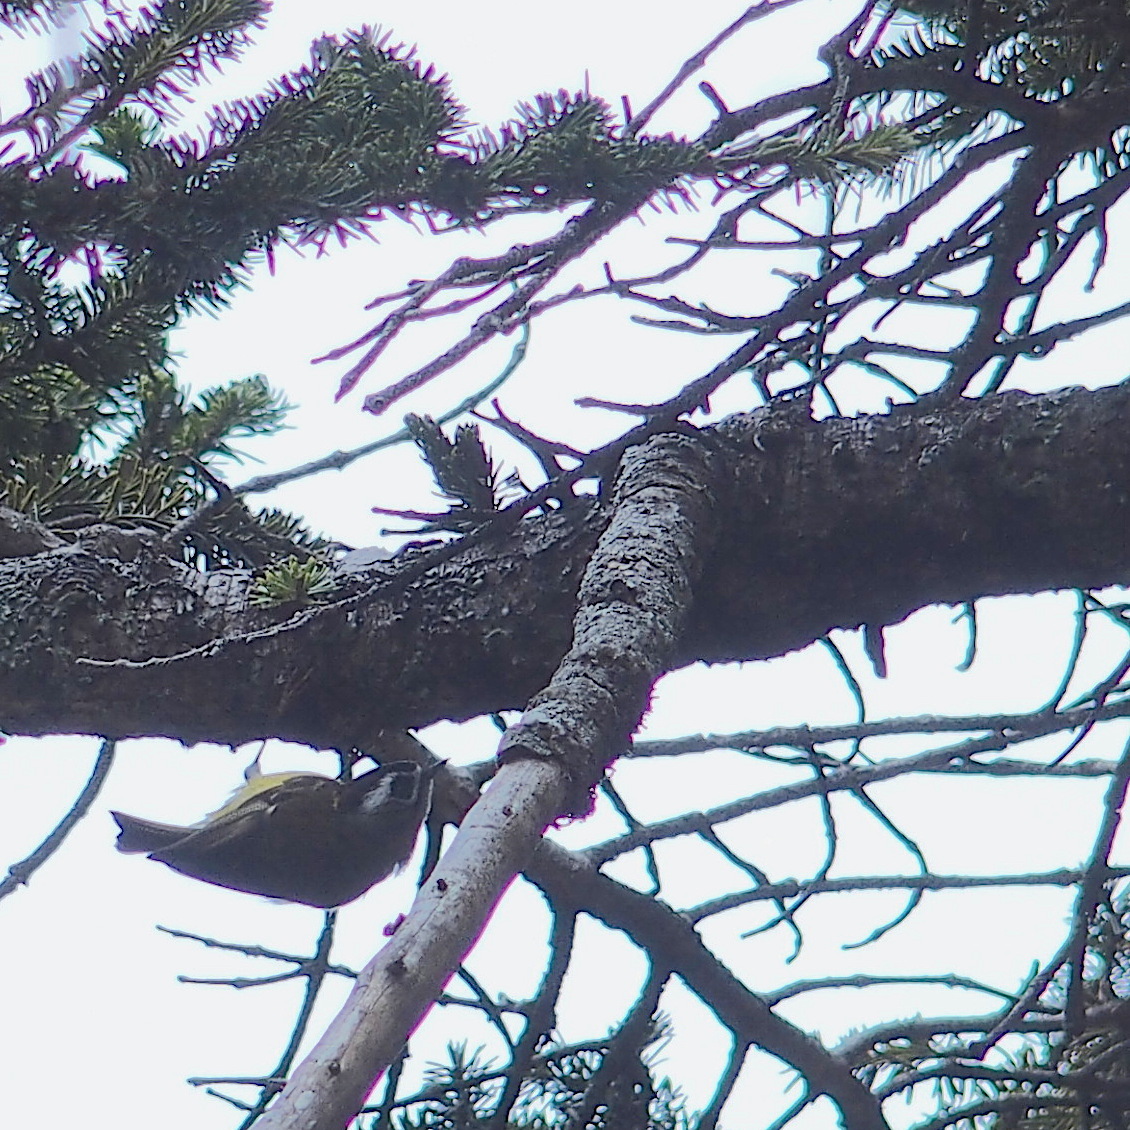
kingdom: Animalia
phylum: Chordata
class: Aves
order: Passeriformes
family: Regulidae
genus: Regulus
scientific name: Regulus goodfellowi
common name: Flamecrest
